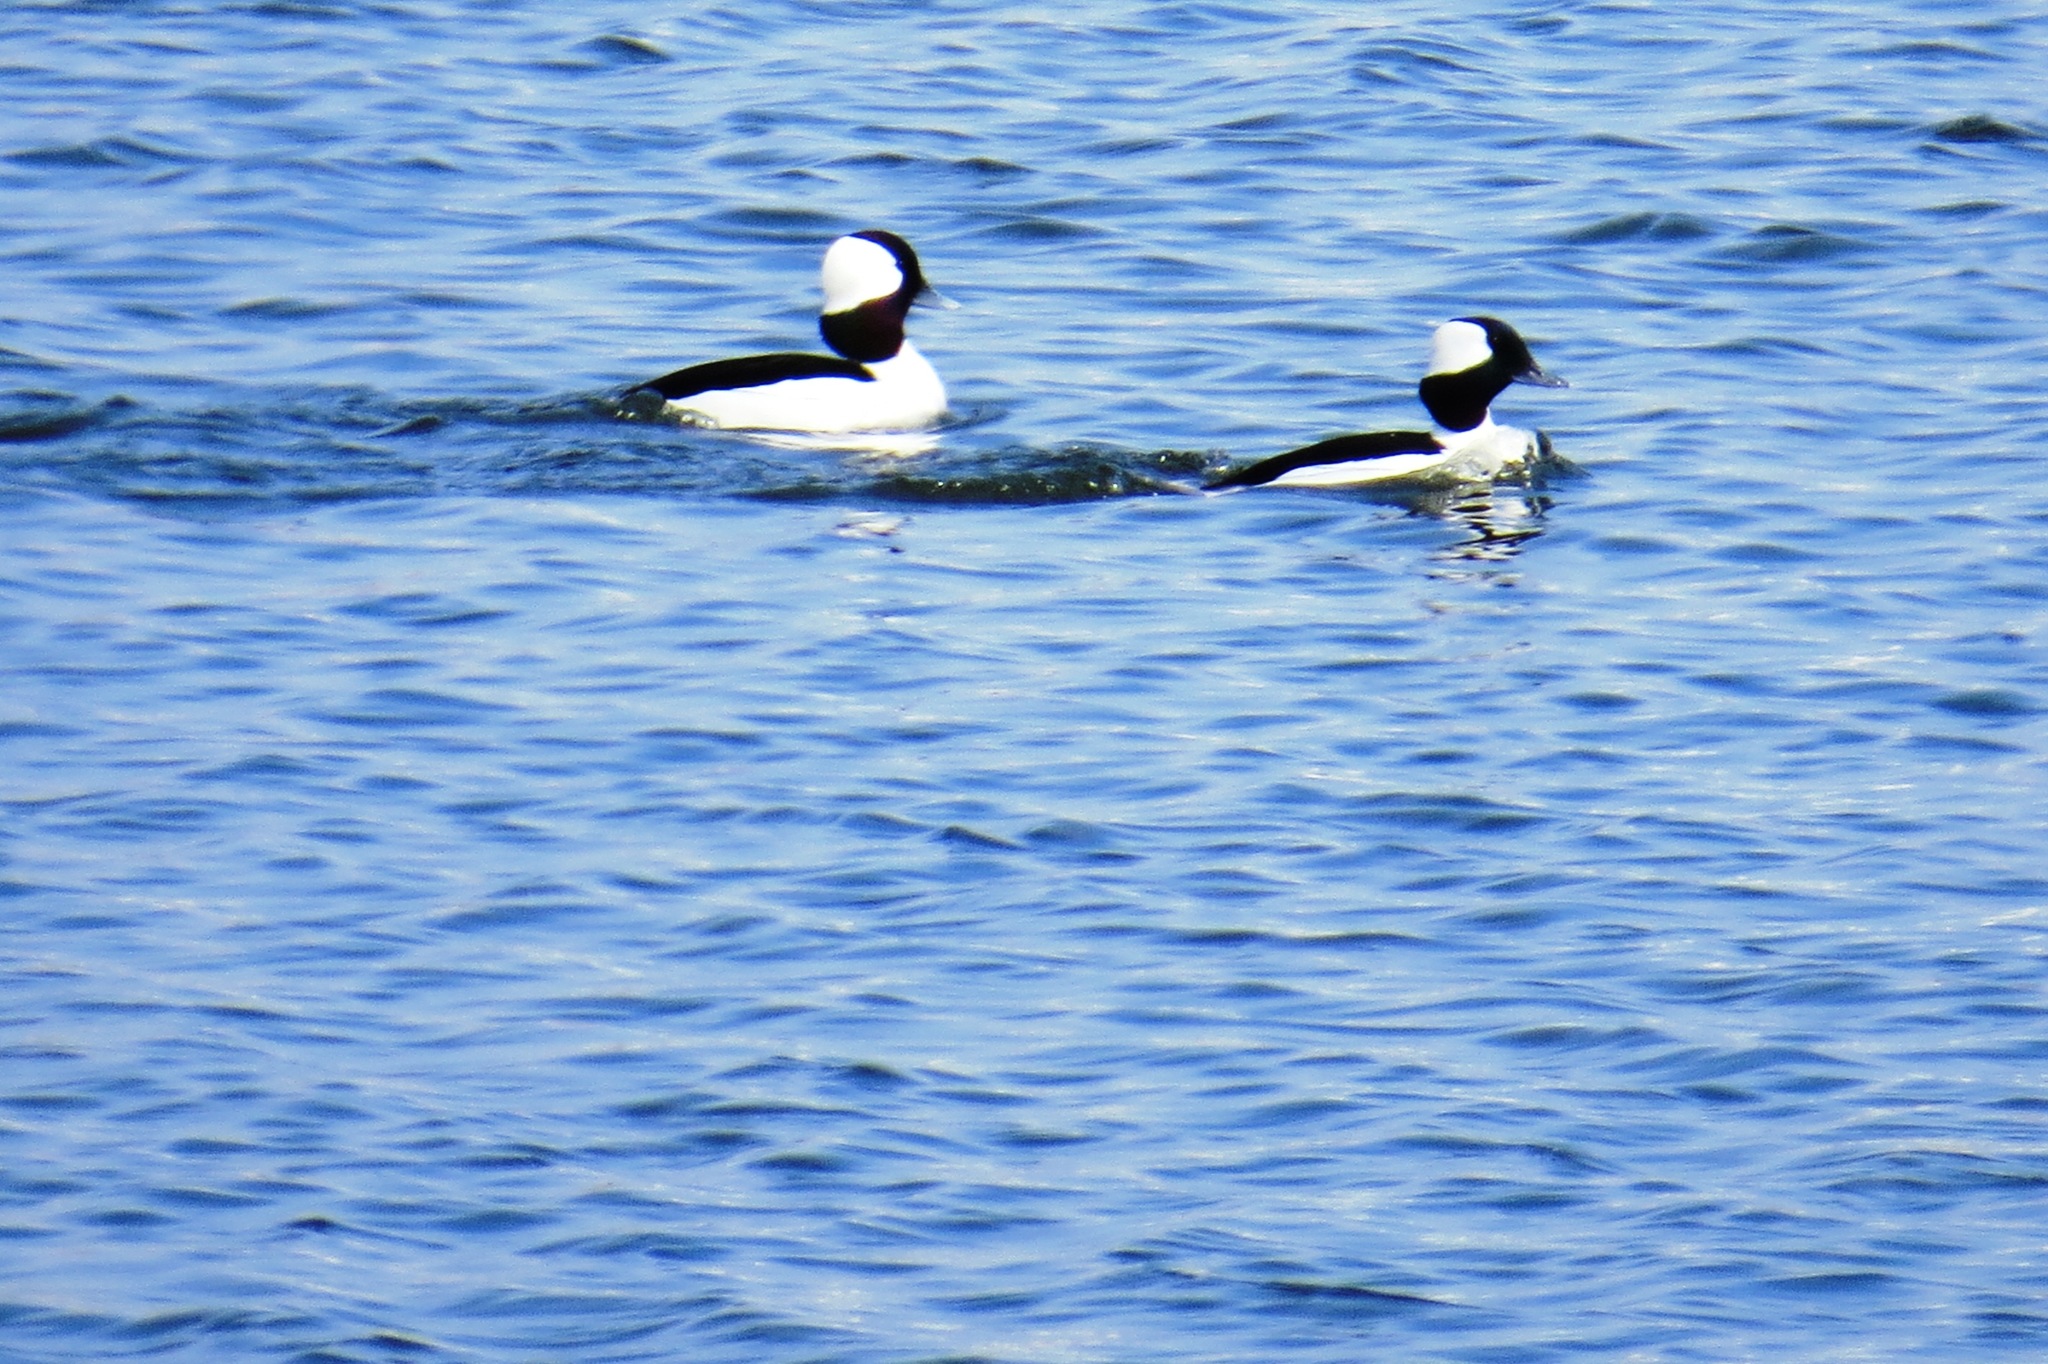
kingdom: Animalia
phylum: Chordata
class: Aves
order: Anseriformes
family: Anatidae
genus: Bucephala
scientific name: Bucephala albeola
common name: Bufflehead
